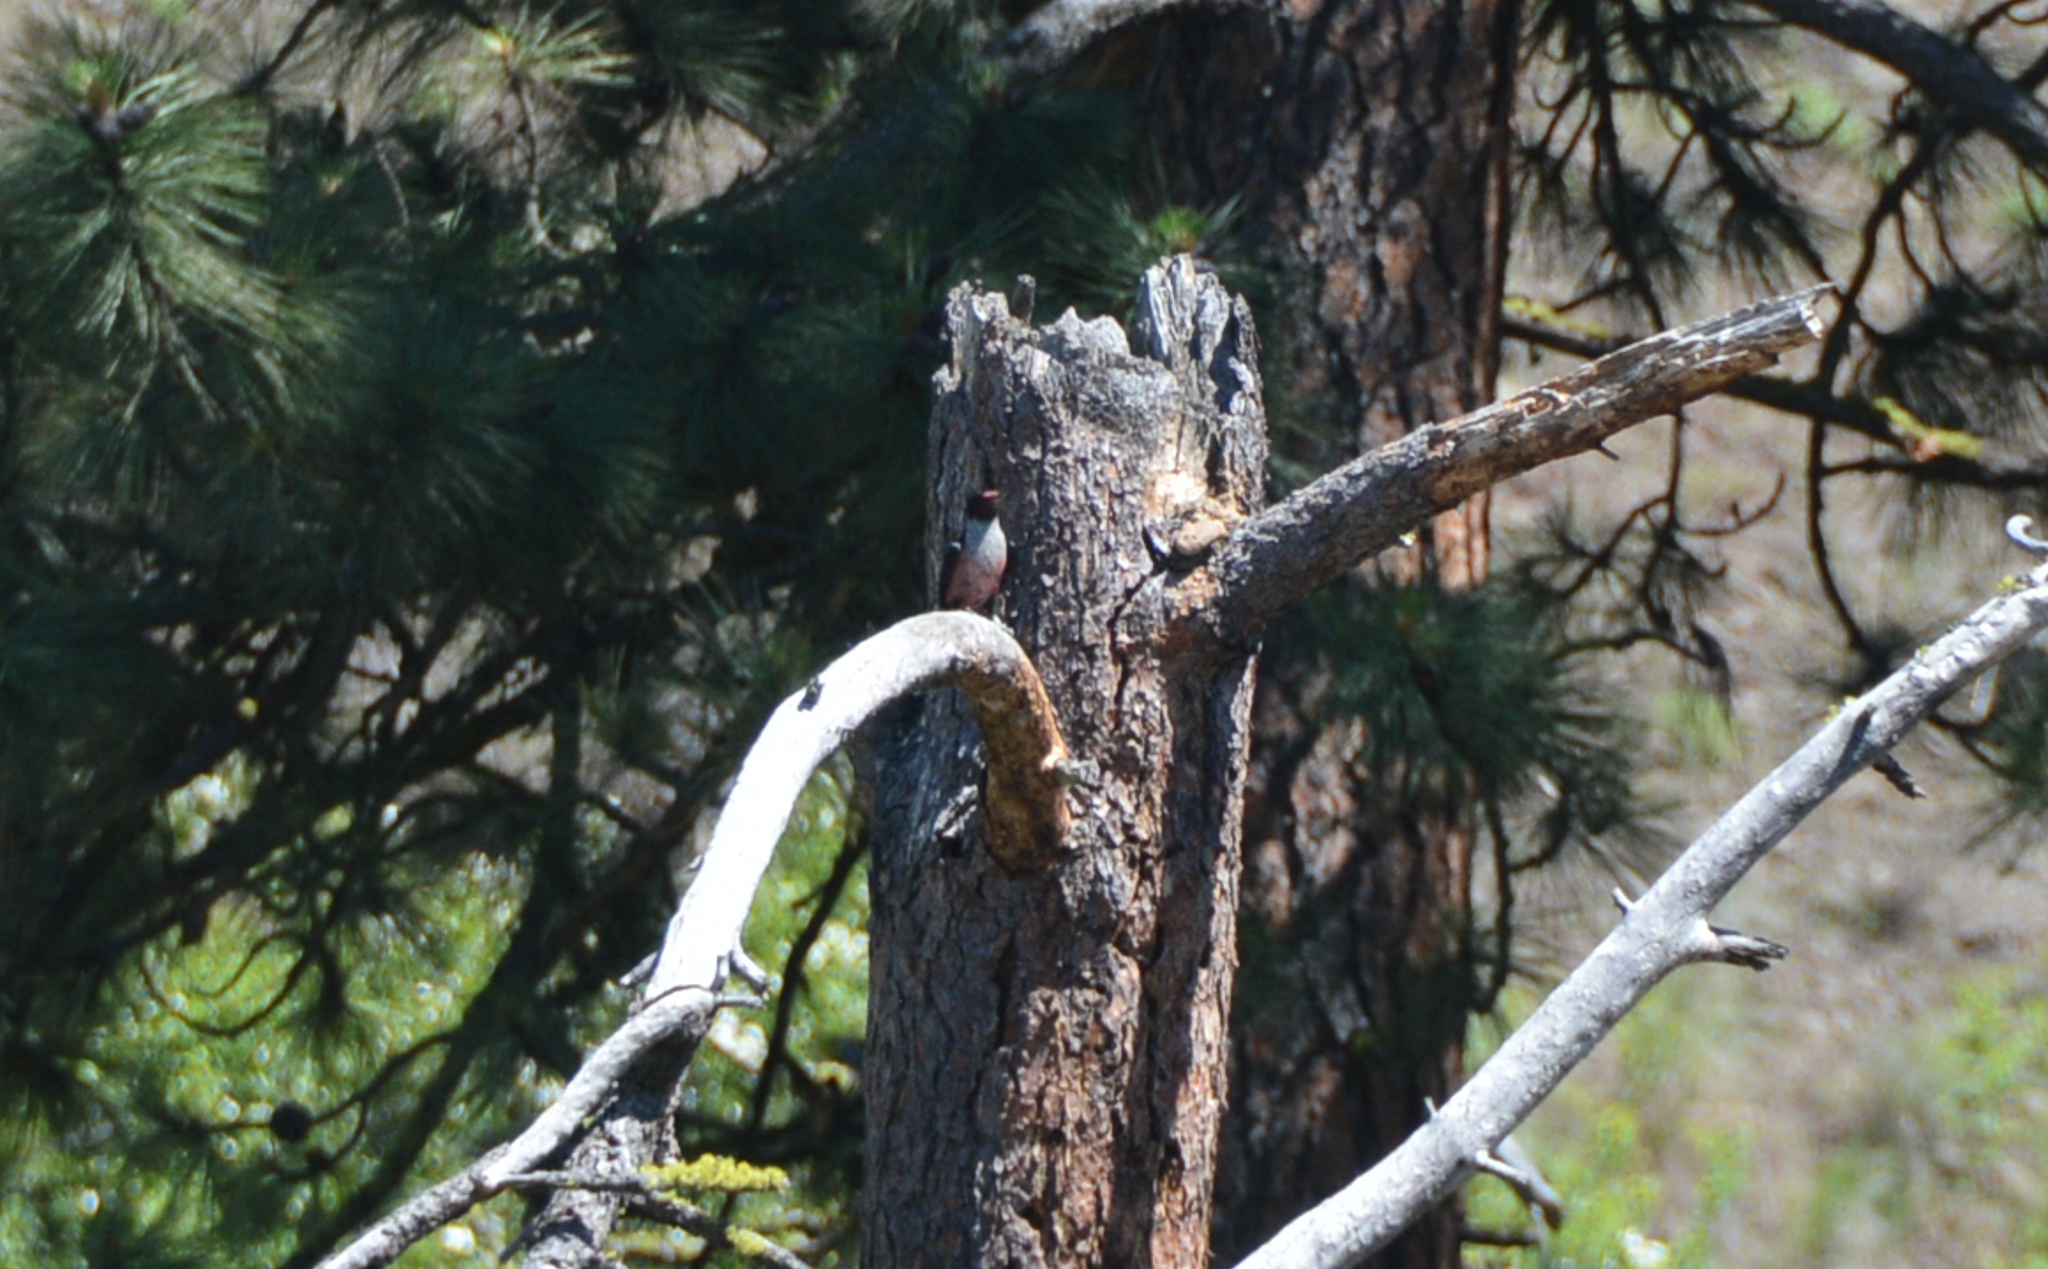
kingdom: Animalia
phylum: Chordata
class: Aves
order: Piciformes
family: Picidae
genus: Melanerpes
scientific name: Melanerpes lewis
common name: Lewis's woodpecker
